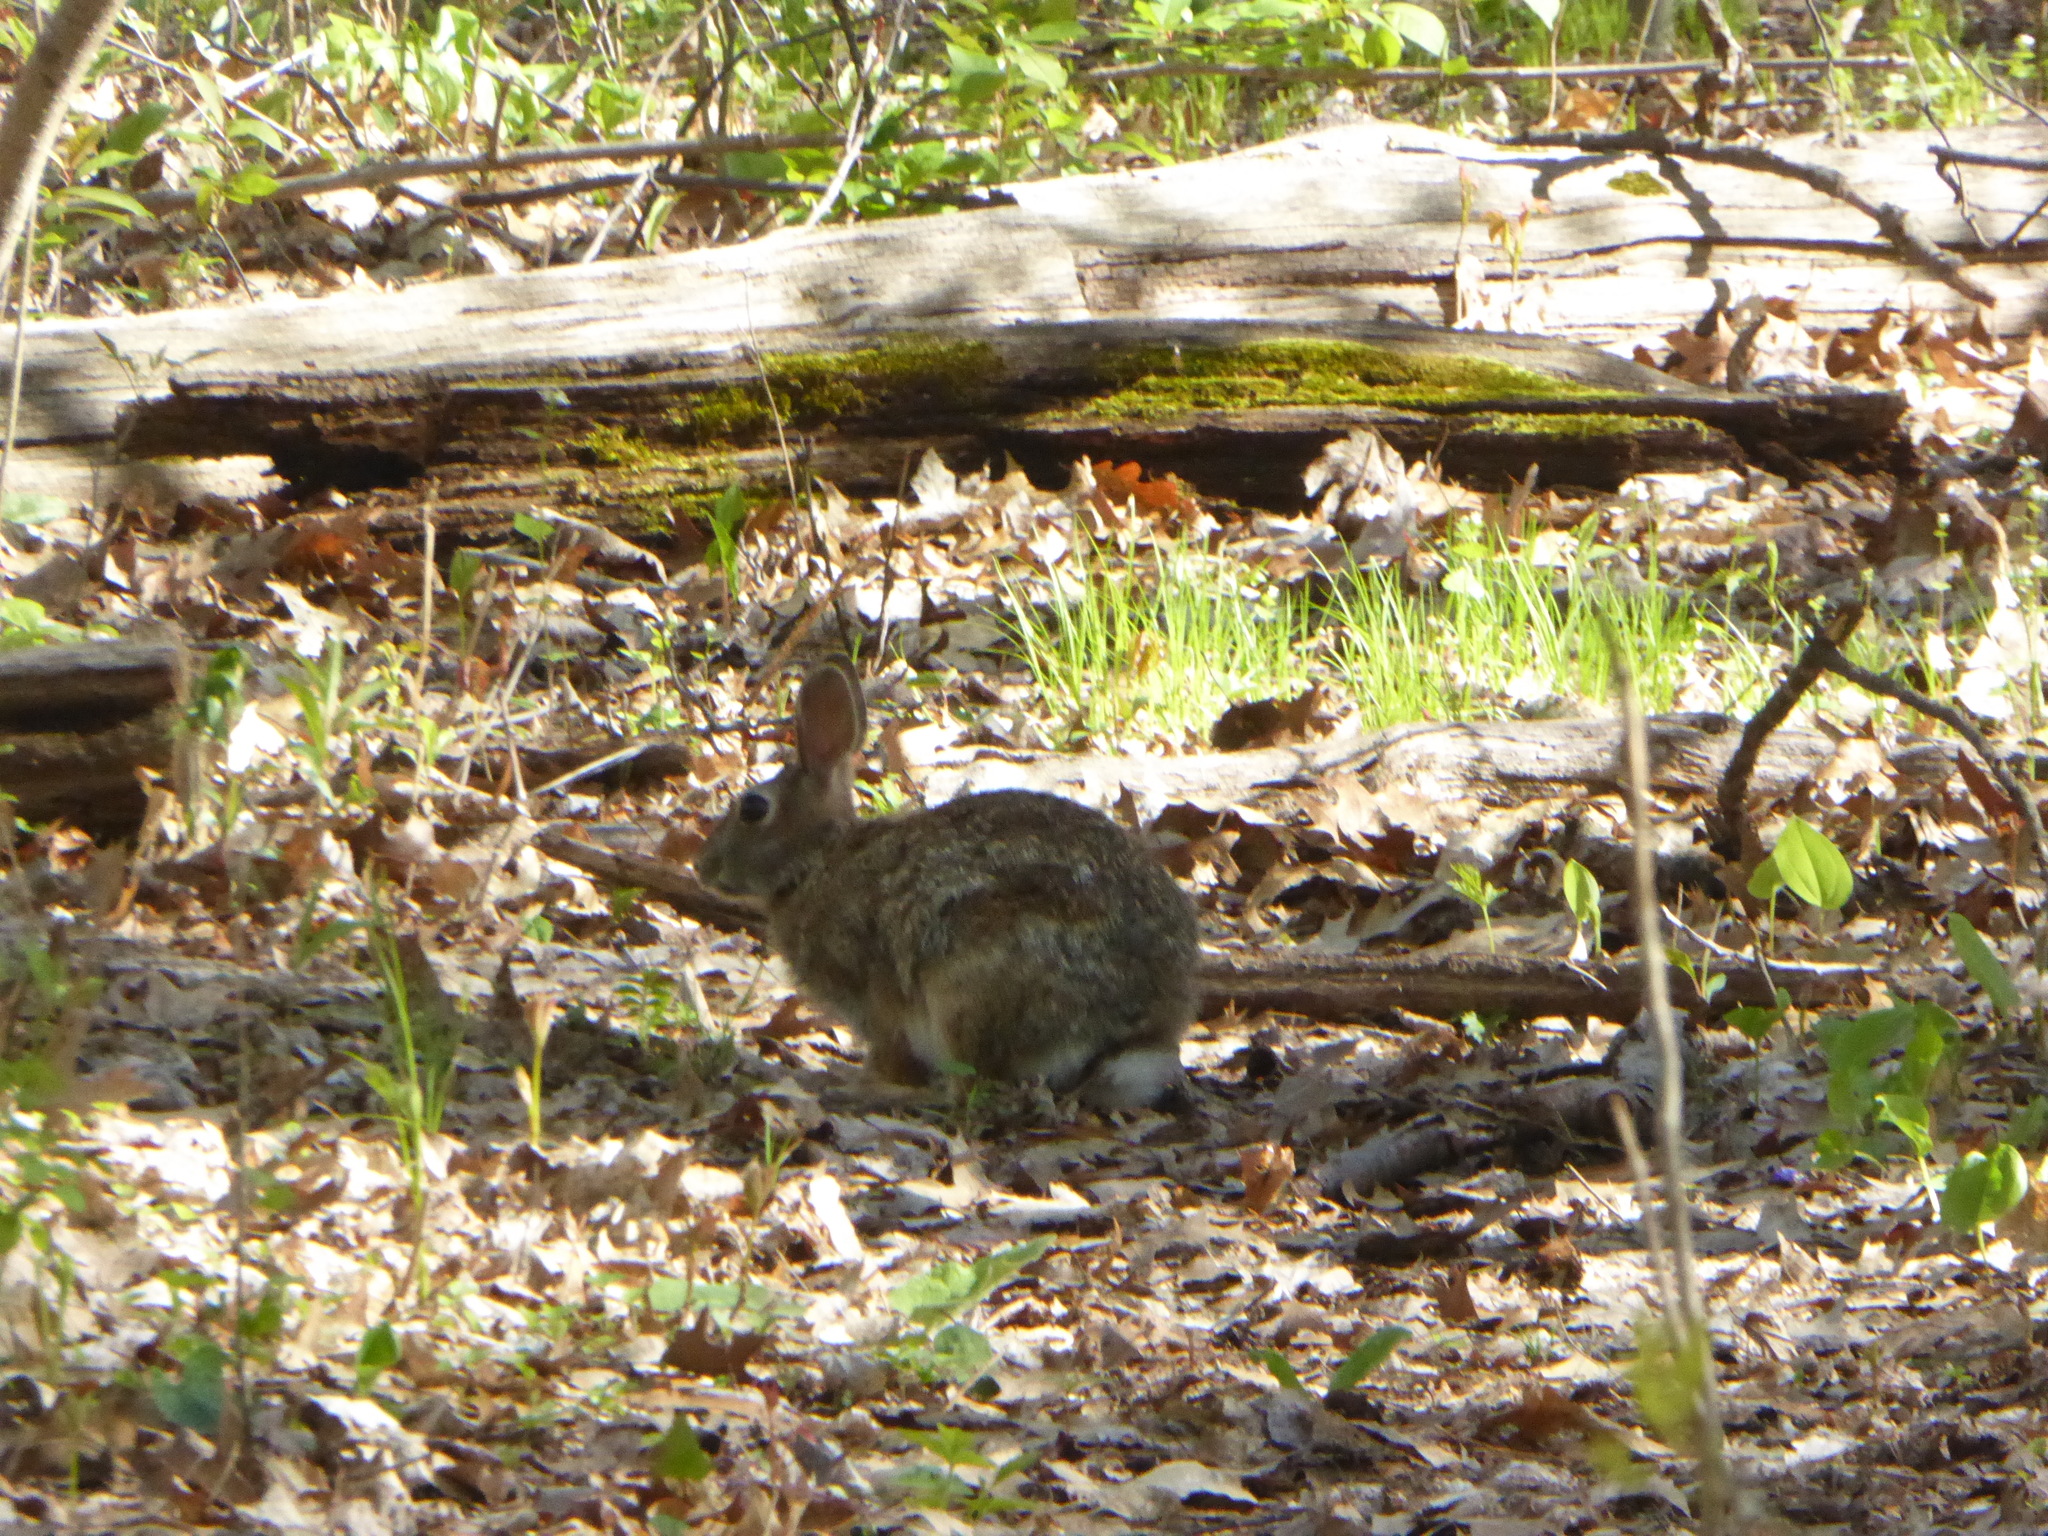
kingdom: Animalia
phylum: Chordata
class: Mammalia
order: Lagomorpha
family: Leporidae
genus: Sylvilagus
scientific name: Sylvilagus floridanus
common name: Eastern cottontail
